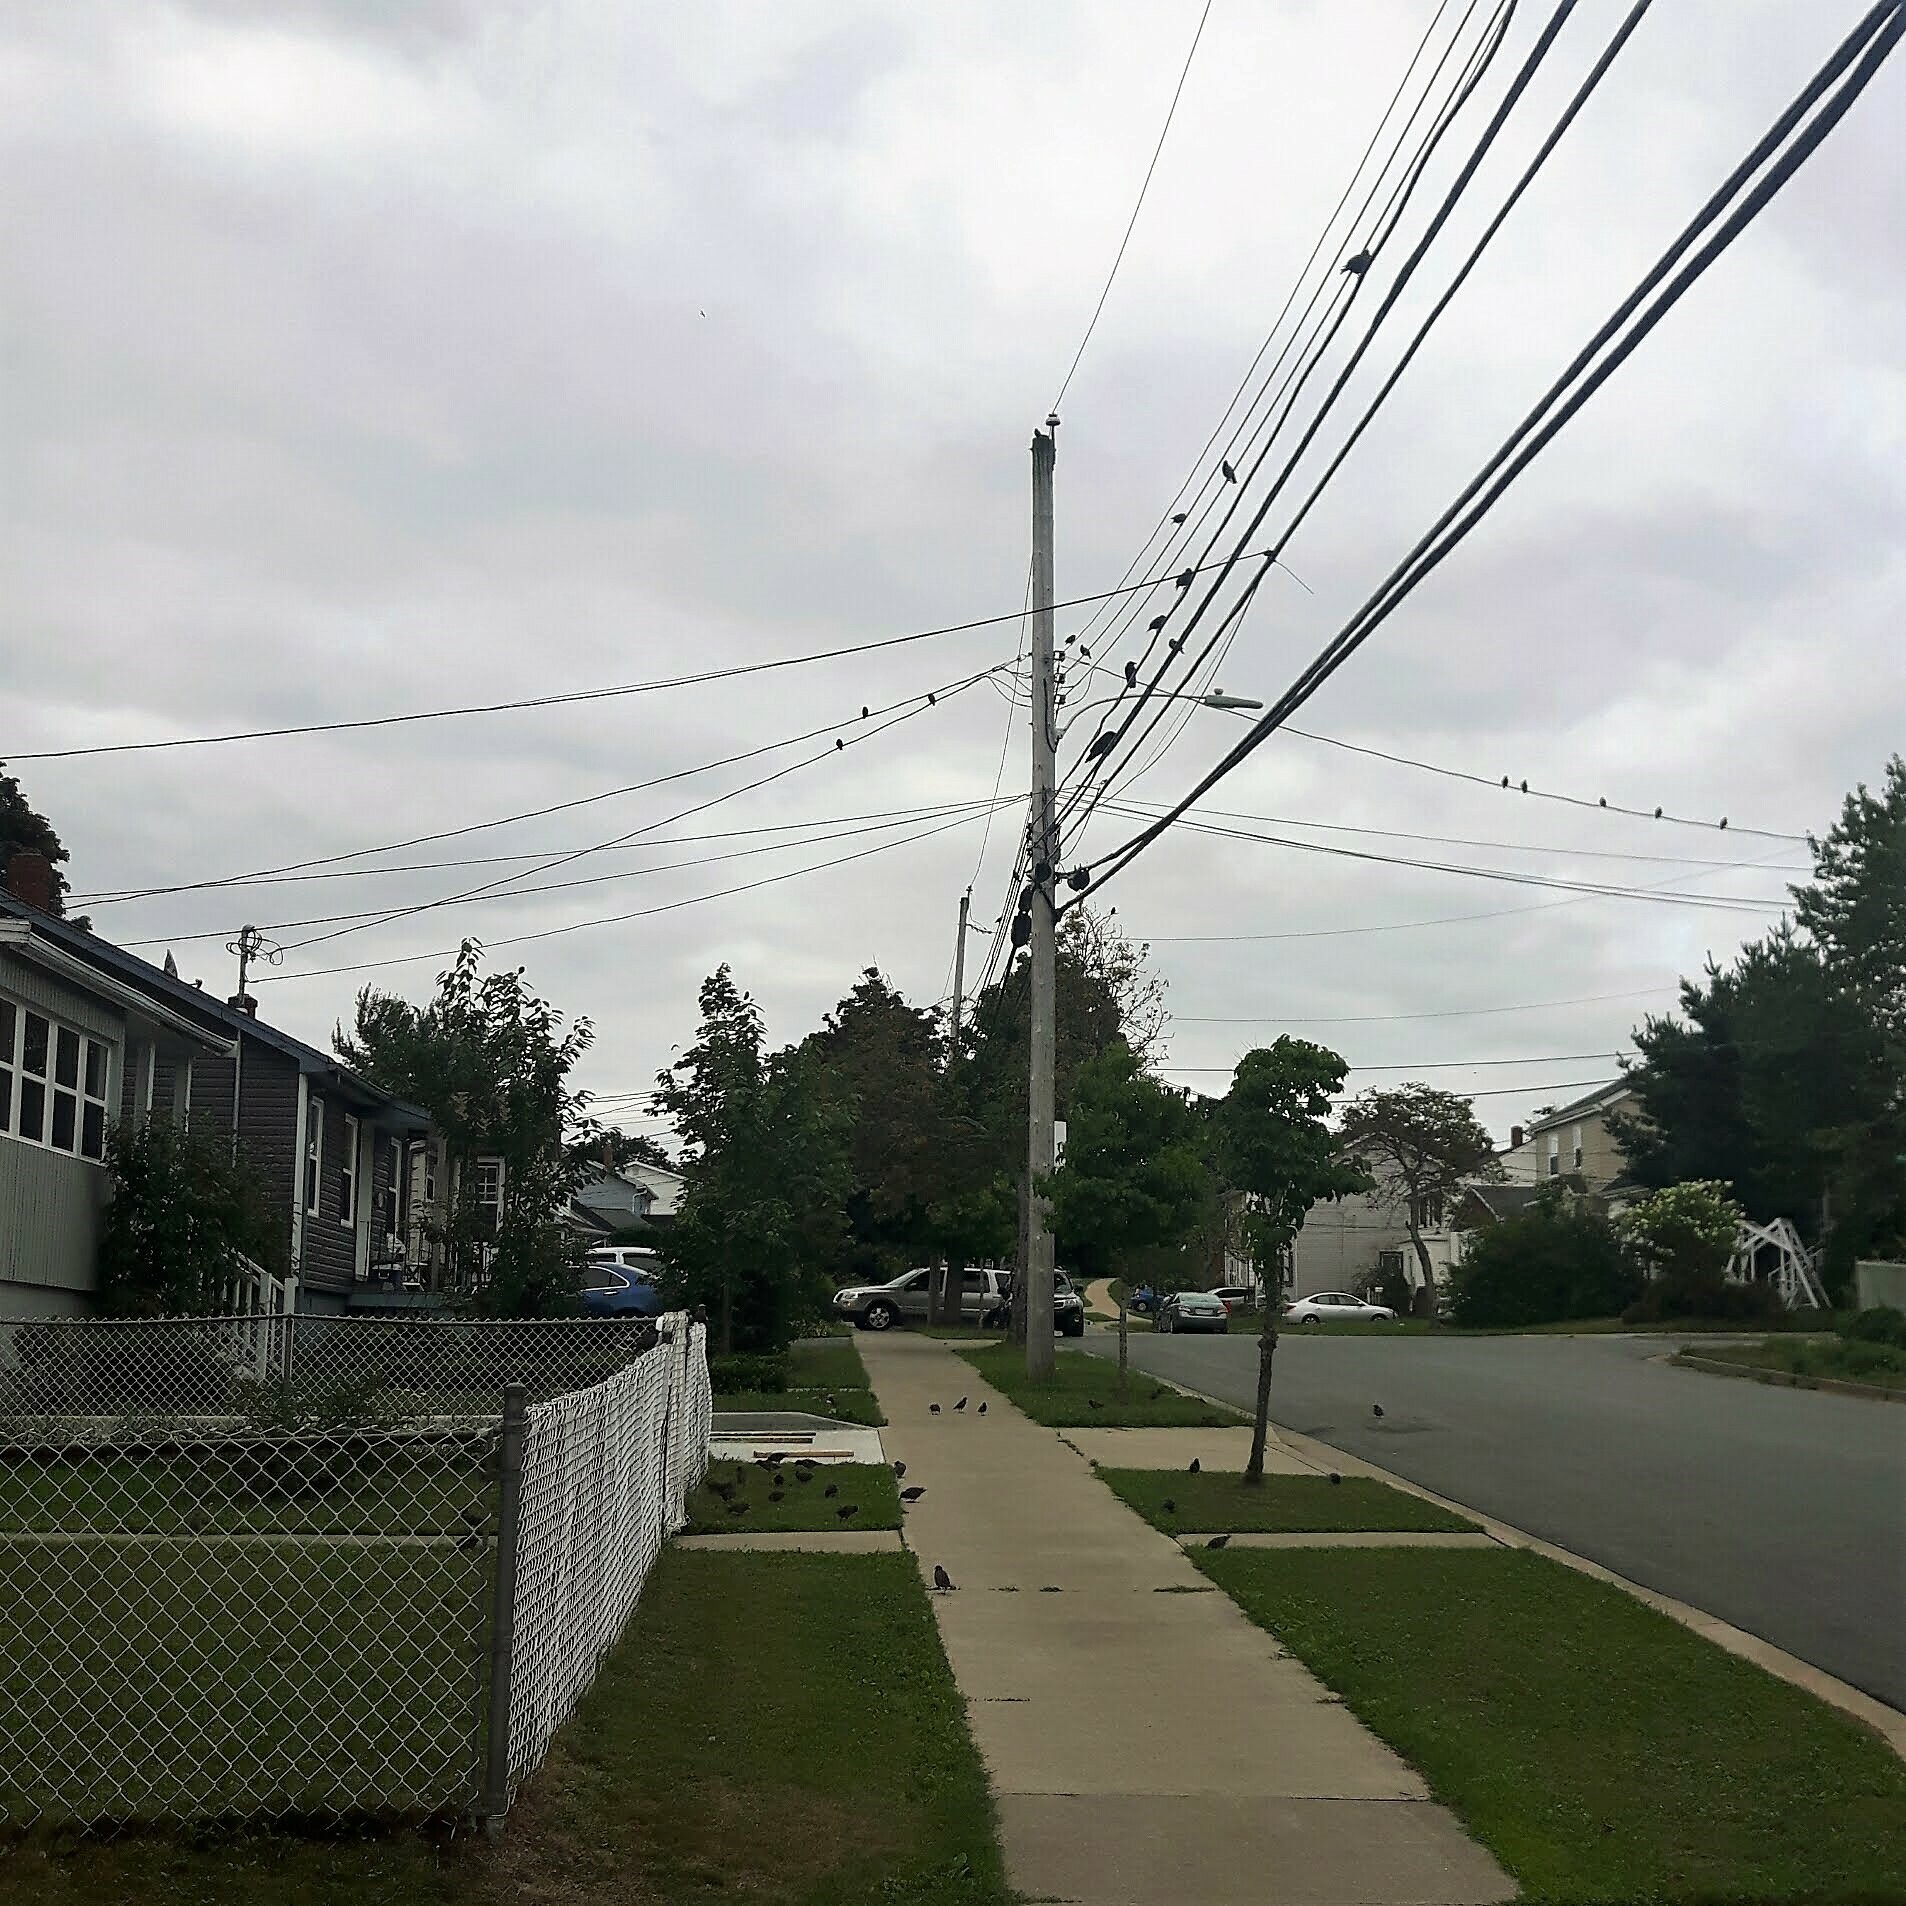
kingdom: Animalia
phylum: Chordata
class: Aves
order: Passeriformes
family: Sturnidae
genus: Sturnus
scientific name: Sturnus vulgaris
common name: Common starling
